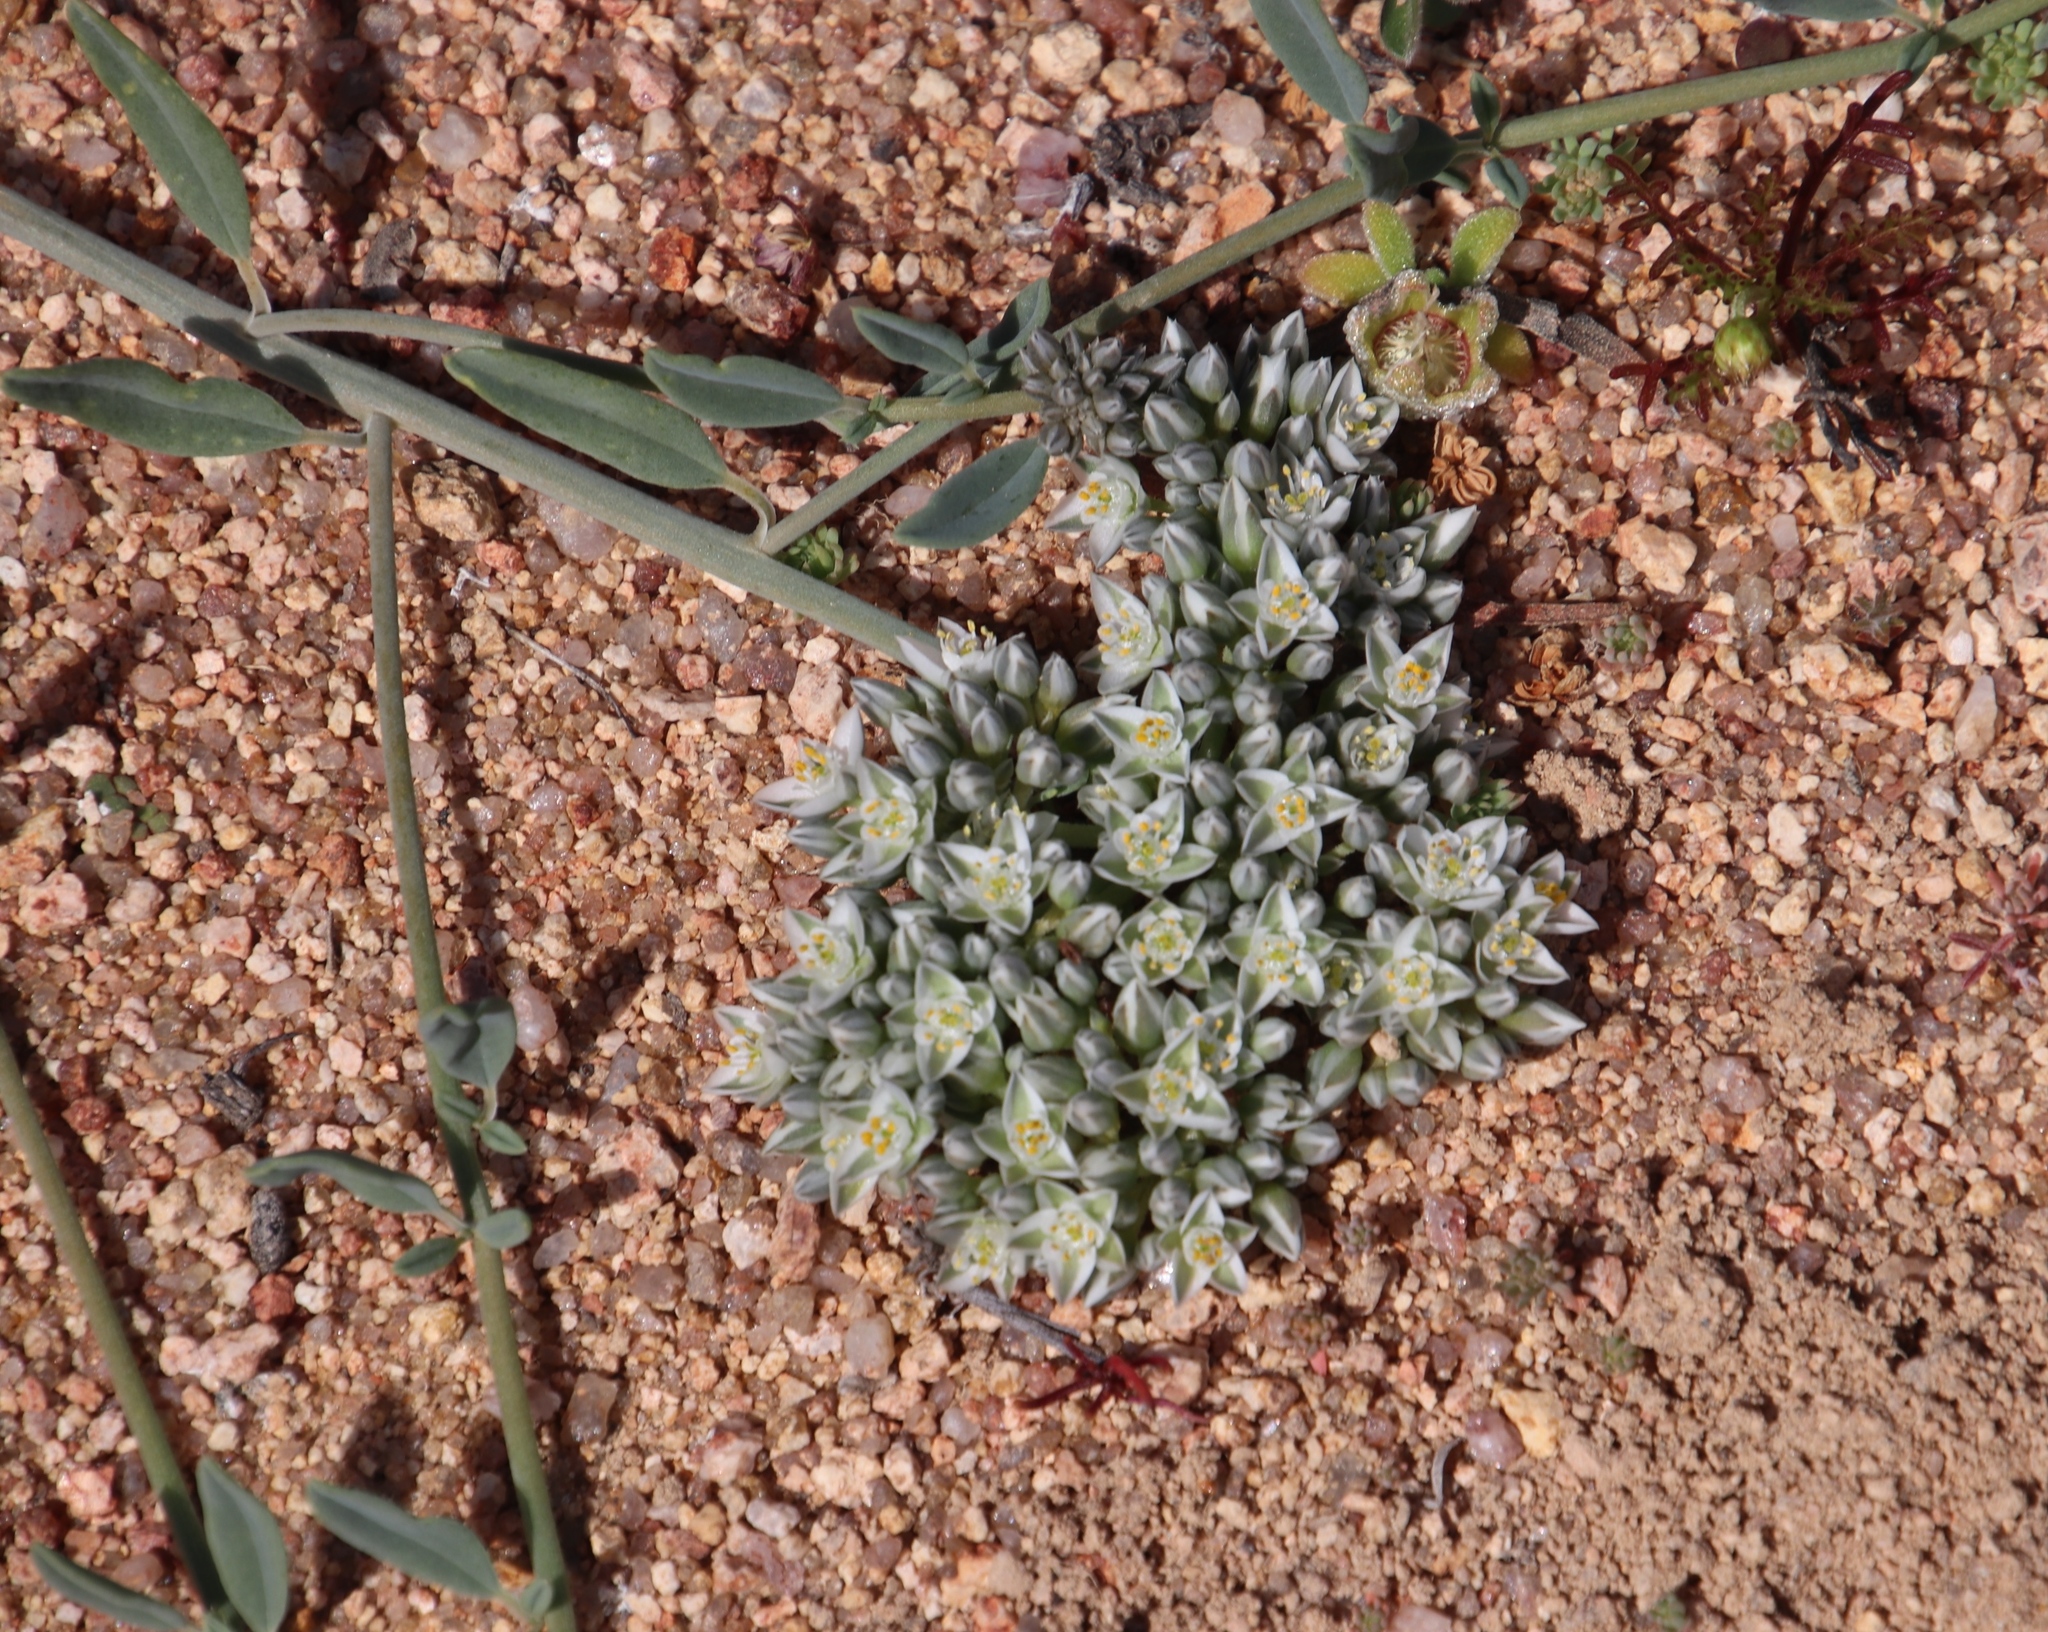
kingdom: Plantae
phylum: Tracheophyta
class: Magnoliopsida
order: Caryophyllales
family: Limeaceae
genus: Limeum
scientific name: Limeum africanum
